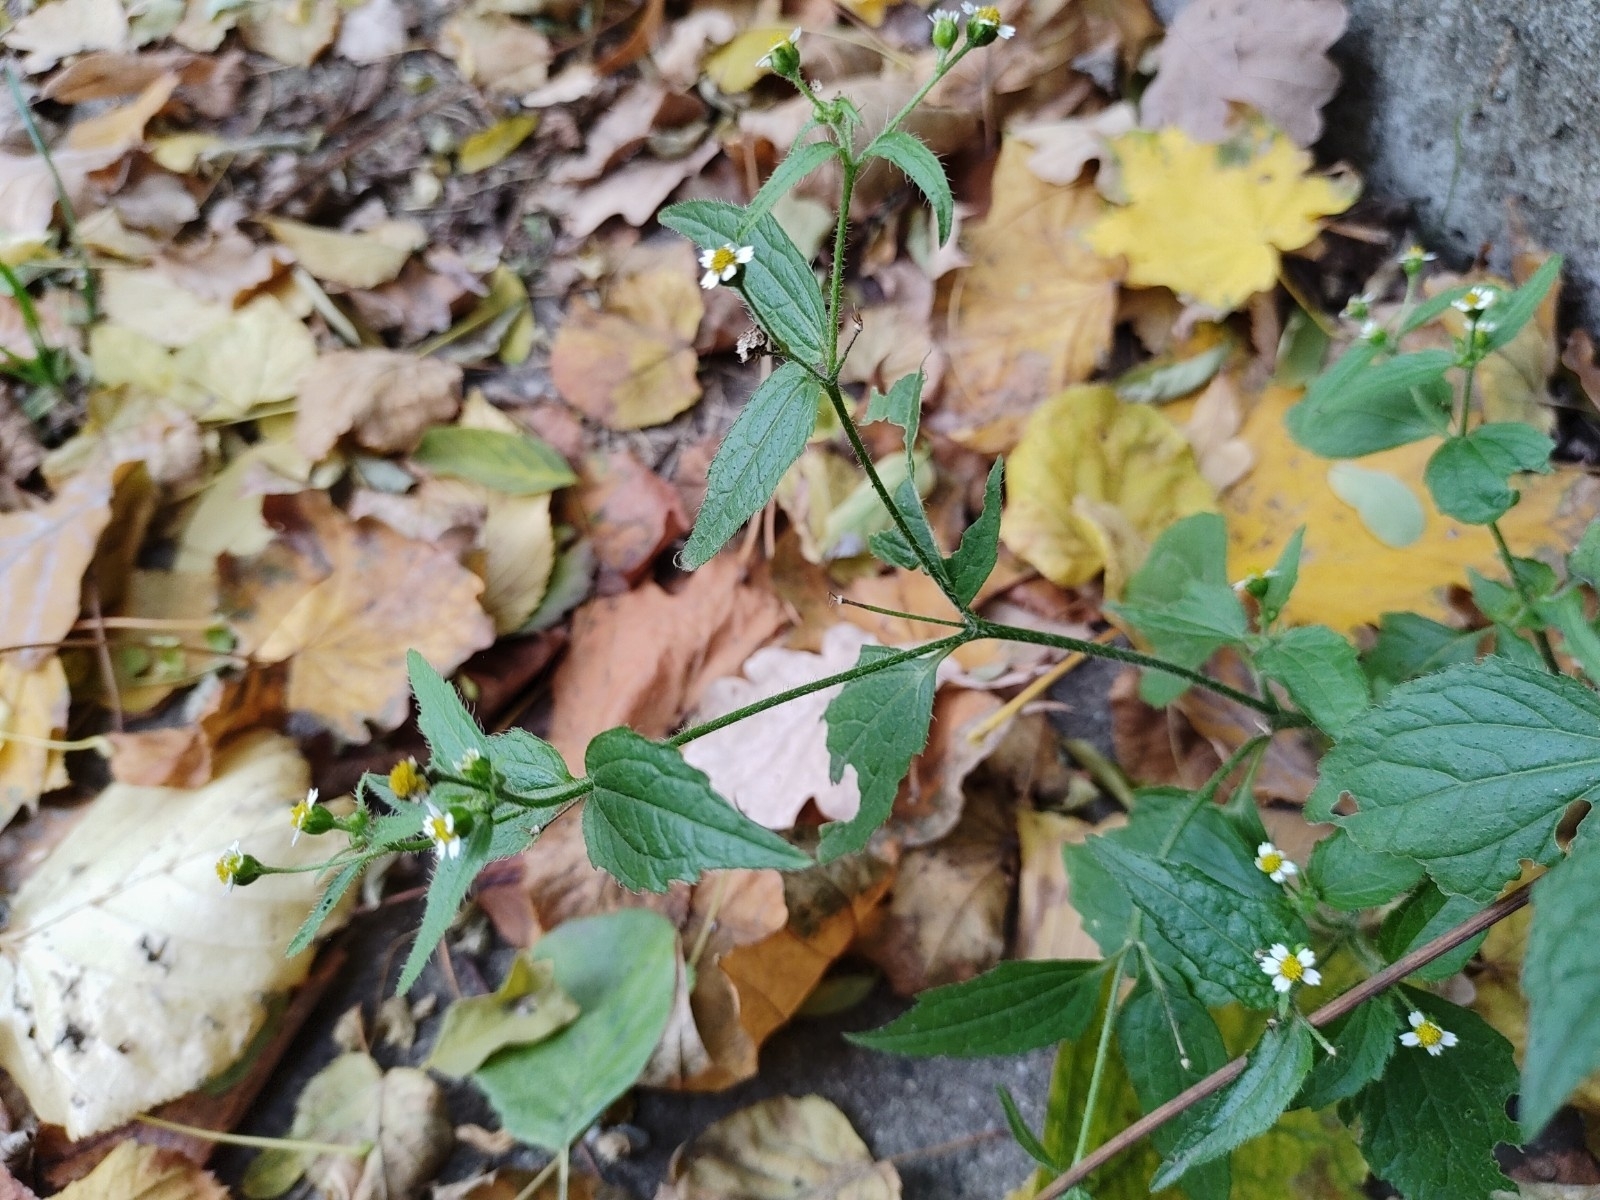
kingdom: Plantae
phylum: Tracheophyta
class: Magnoliopsida
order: Asterales
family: Asteraceae
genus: Galinsoga
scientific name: Galinsoga quadriradiata
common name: Shaggy soldier
